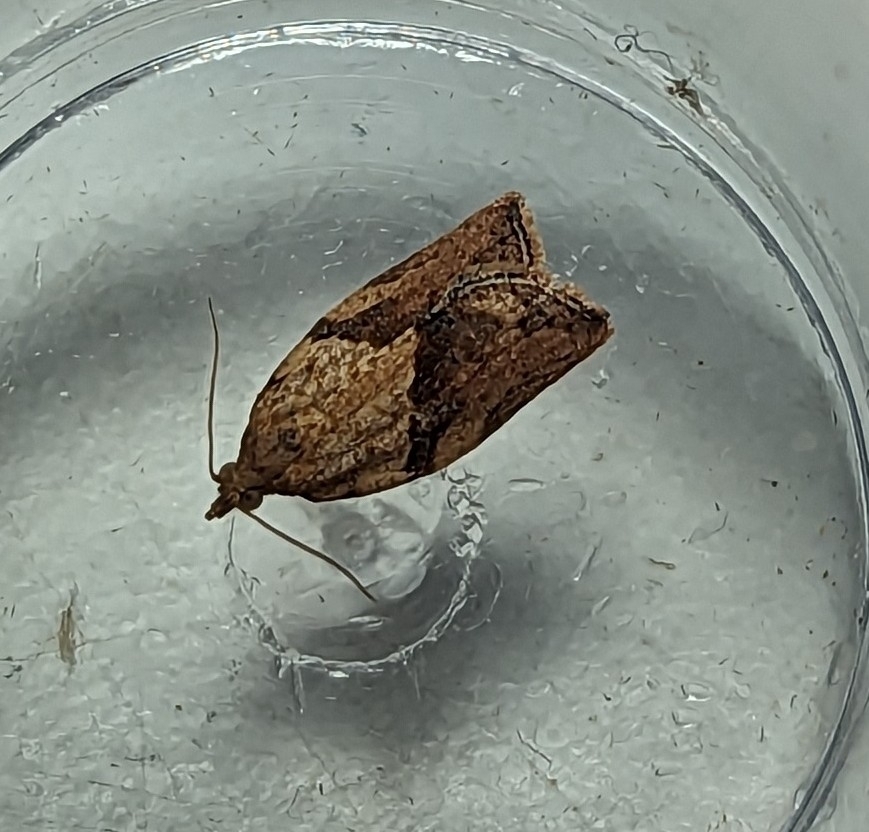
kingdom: Animalia
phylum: Arthropoda
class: Insecta
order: Lepidoptera
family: Tortricidae
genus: Epiphyas
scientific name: Epiphyas postvittana
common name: Light brown apple moth
